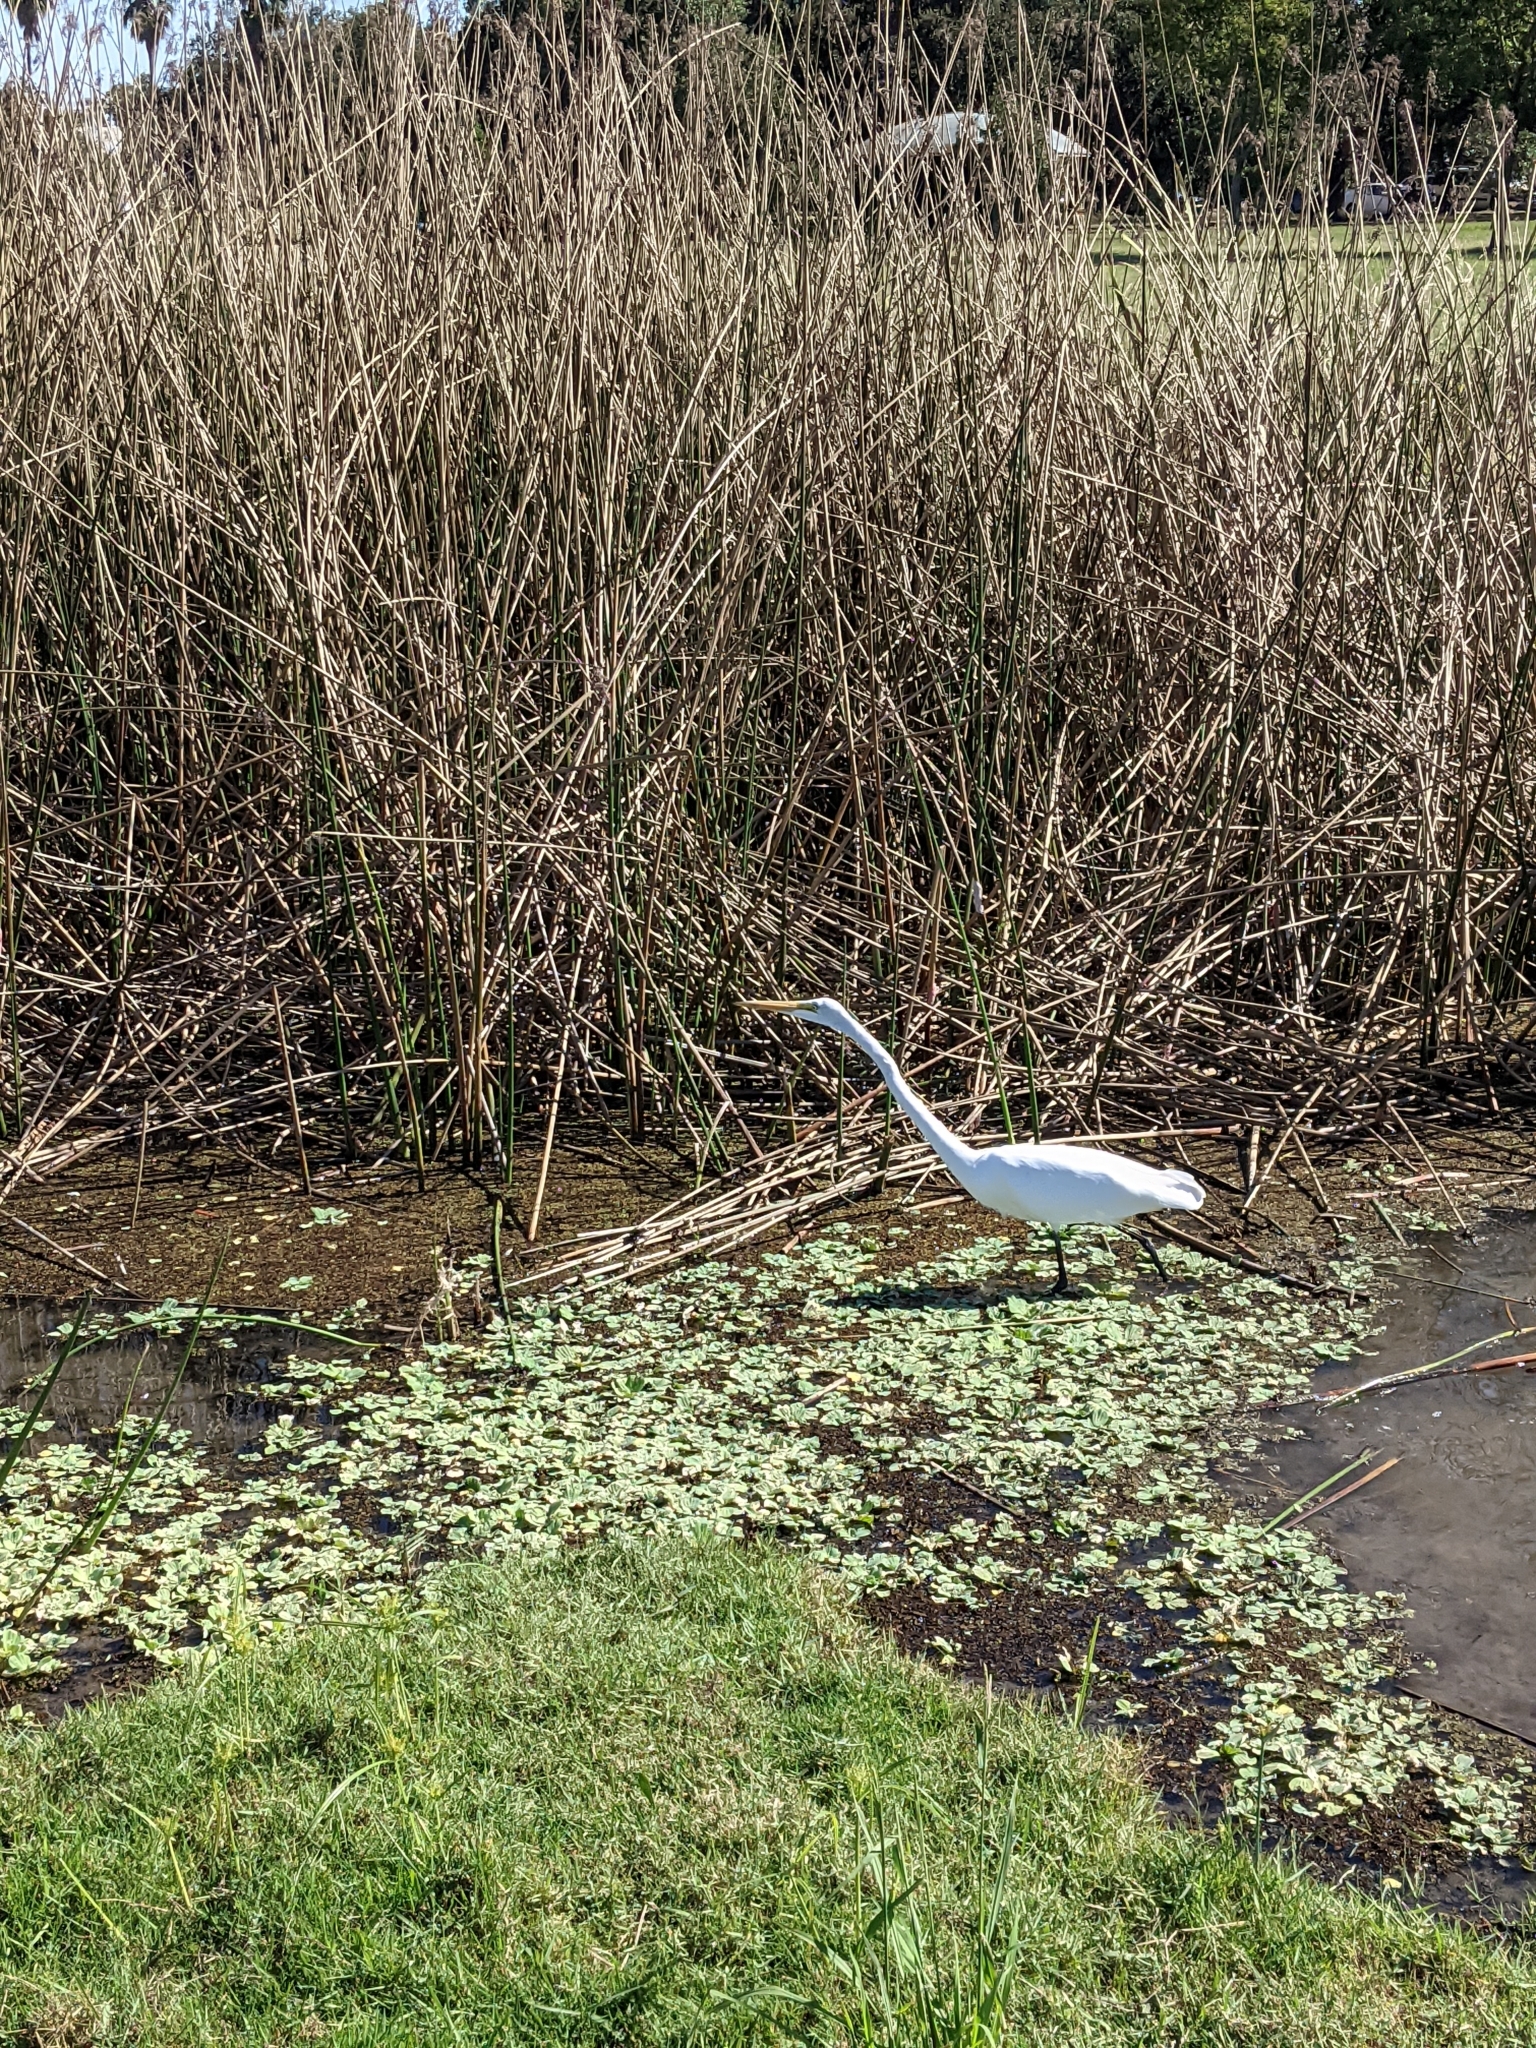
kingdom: Animalia
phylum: Chordata
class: Aves
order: Pelecaniformes
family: Ardeidae
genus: Ardea
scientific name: Ardea alba
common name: Great egret
